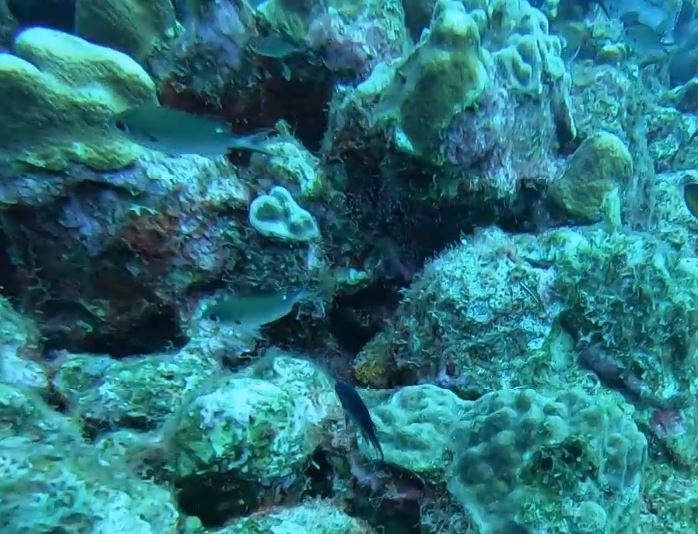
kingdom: Animalia
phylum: Chordata
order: Perciformes
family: Pomacentridae
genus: Chromis
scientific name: Chromis multilineata
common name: Brown chromis
